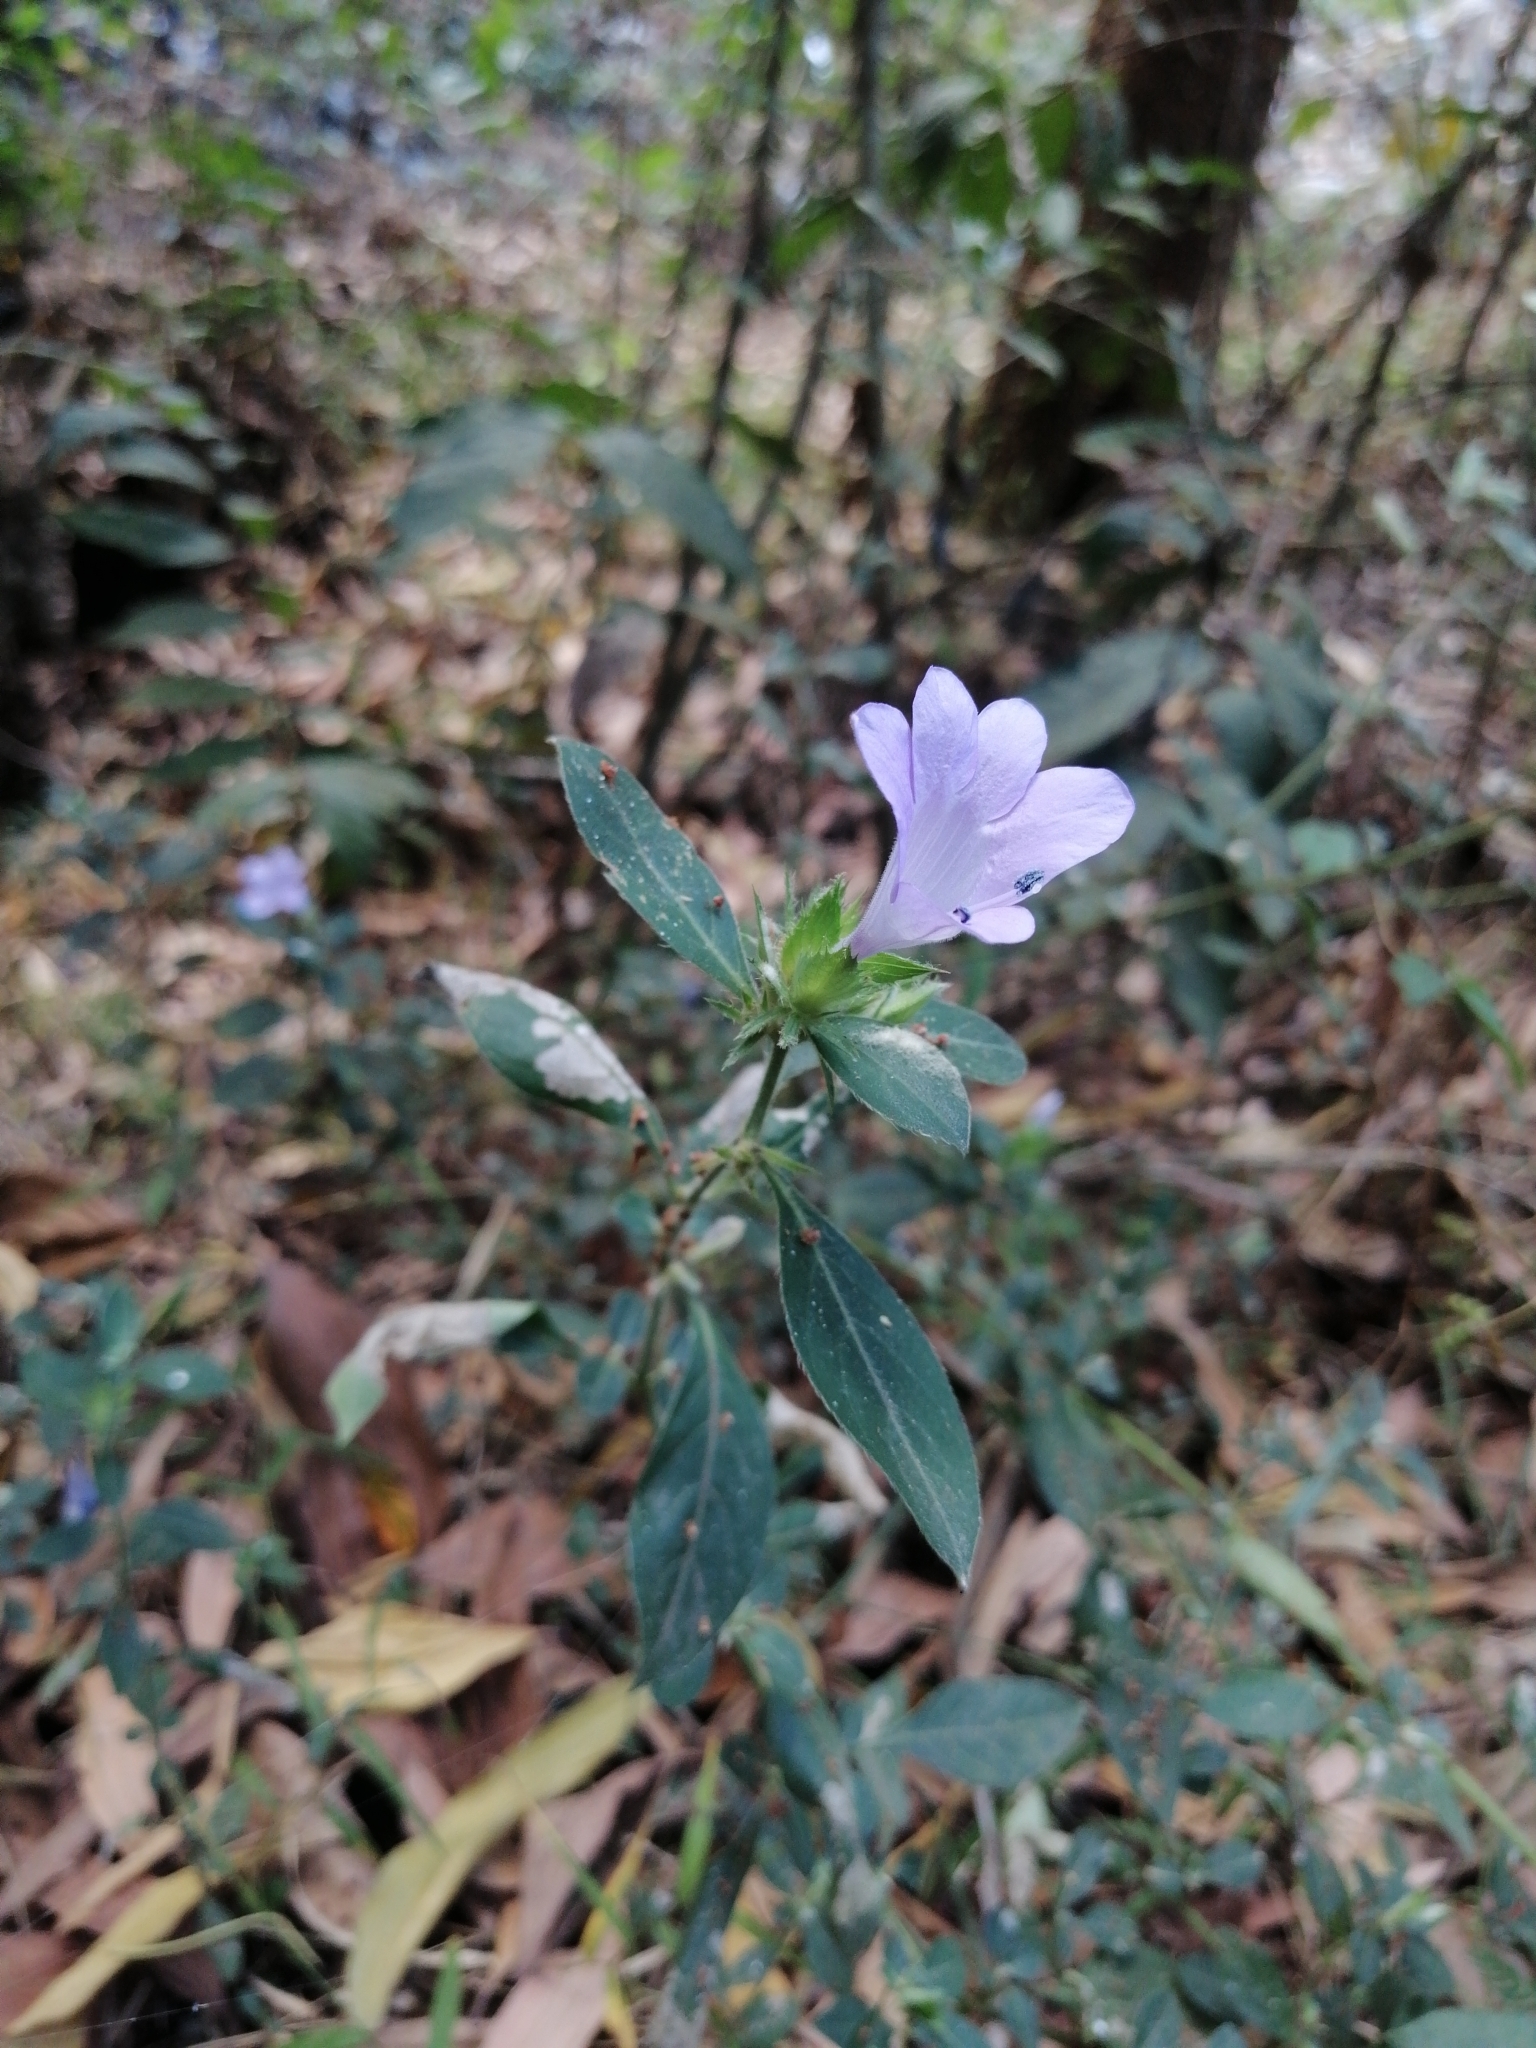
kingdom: Plantae
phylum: Tracheophyta
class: Magnoliopsida
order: Lamiales
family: Acanthaceae
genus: Barleria
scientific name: Barleria cristata
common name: Crested philippine violet
